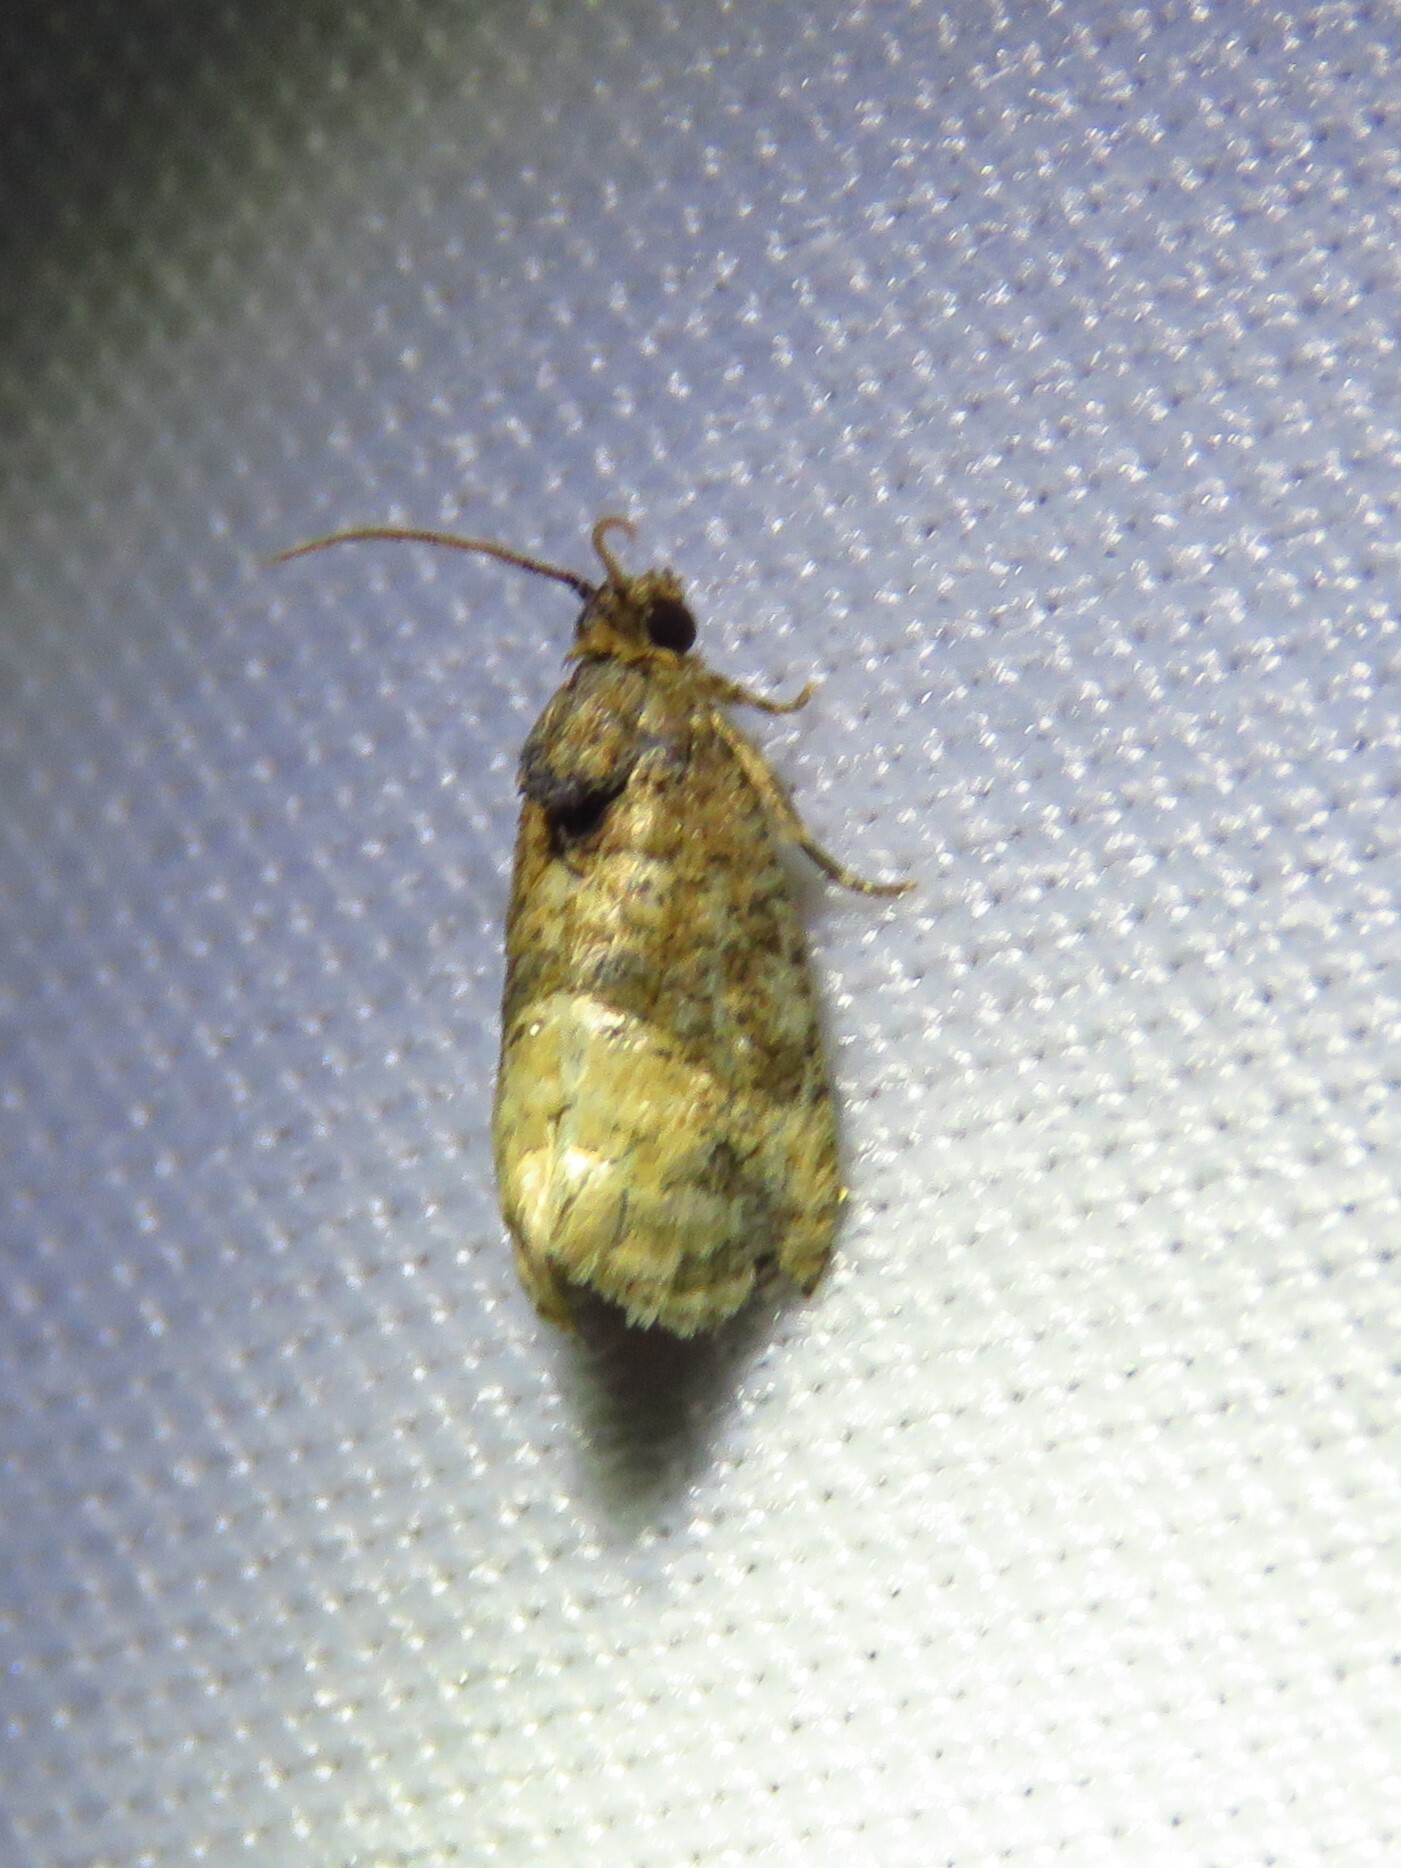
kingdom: Animalia
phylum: Arthropoda
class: Insecta
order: Lepidoptera
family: Tortricidae
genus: Ecdytolopha
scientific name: Ecdytolopha mana
